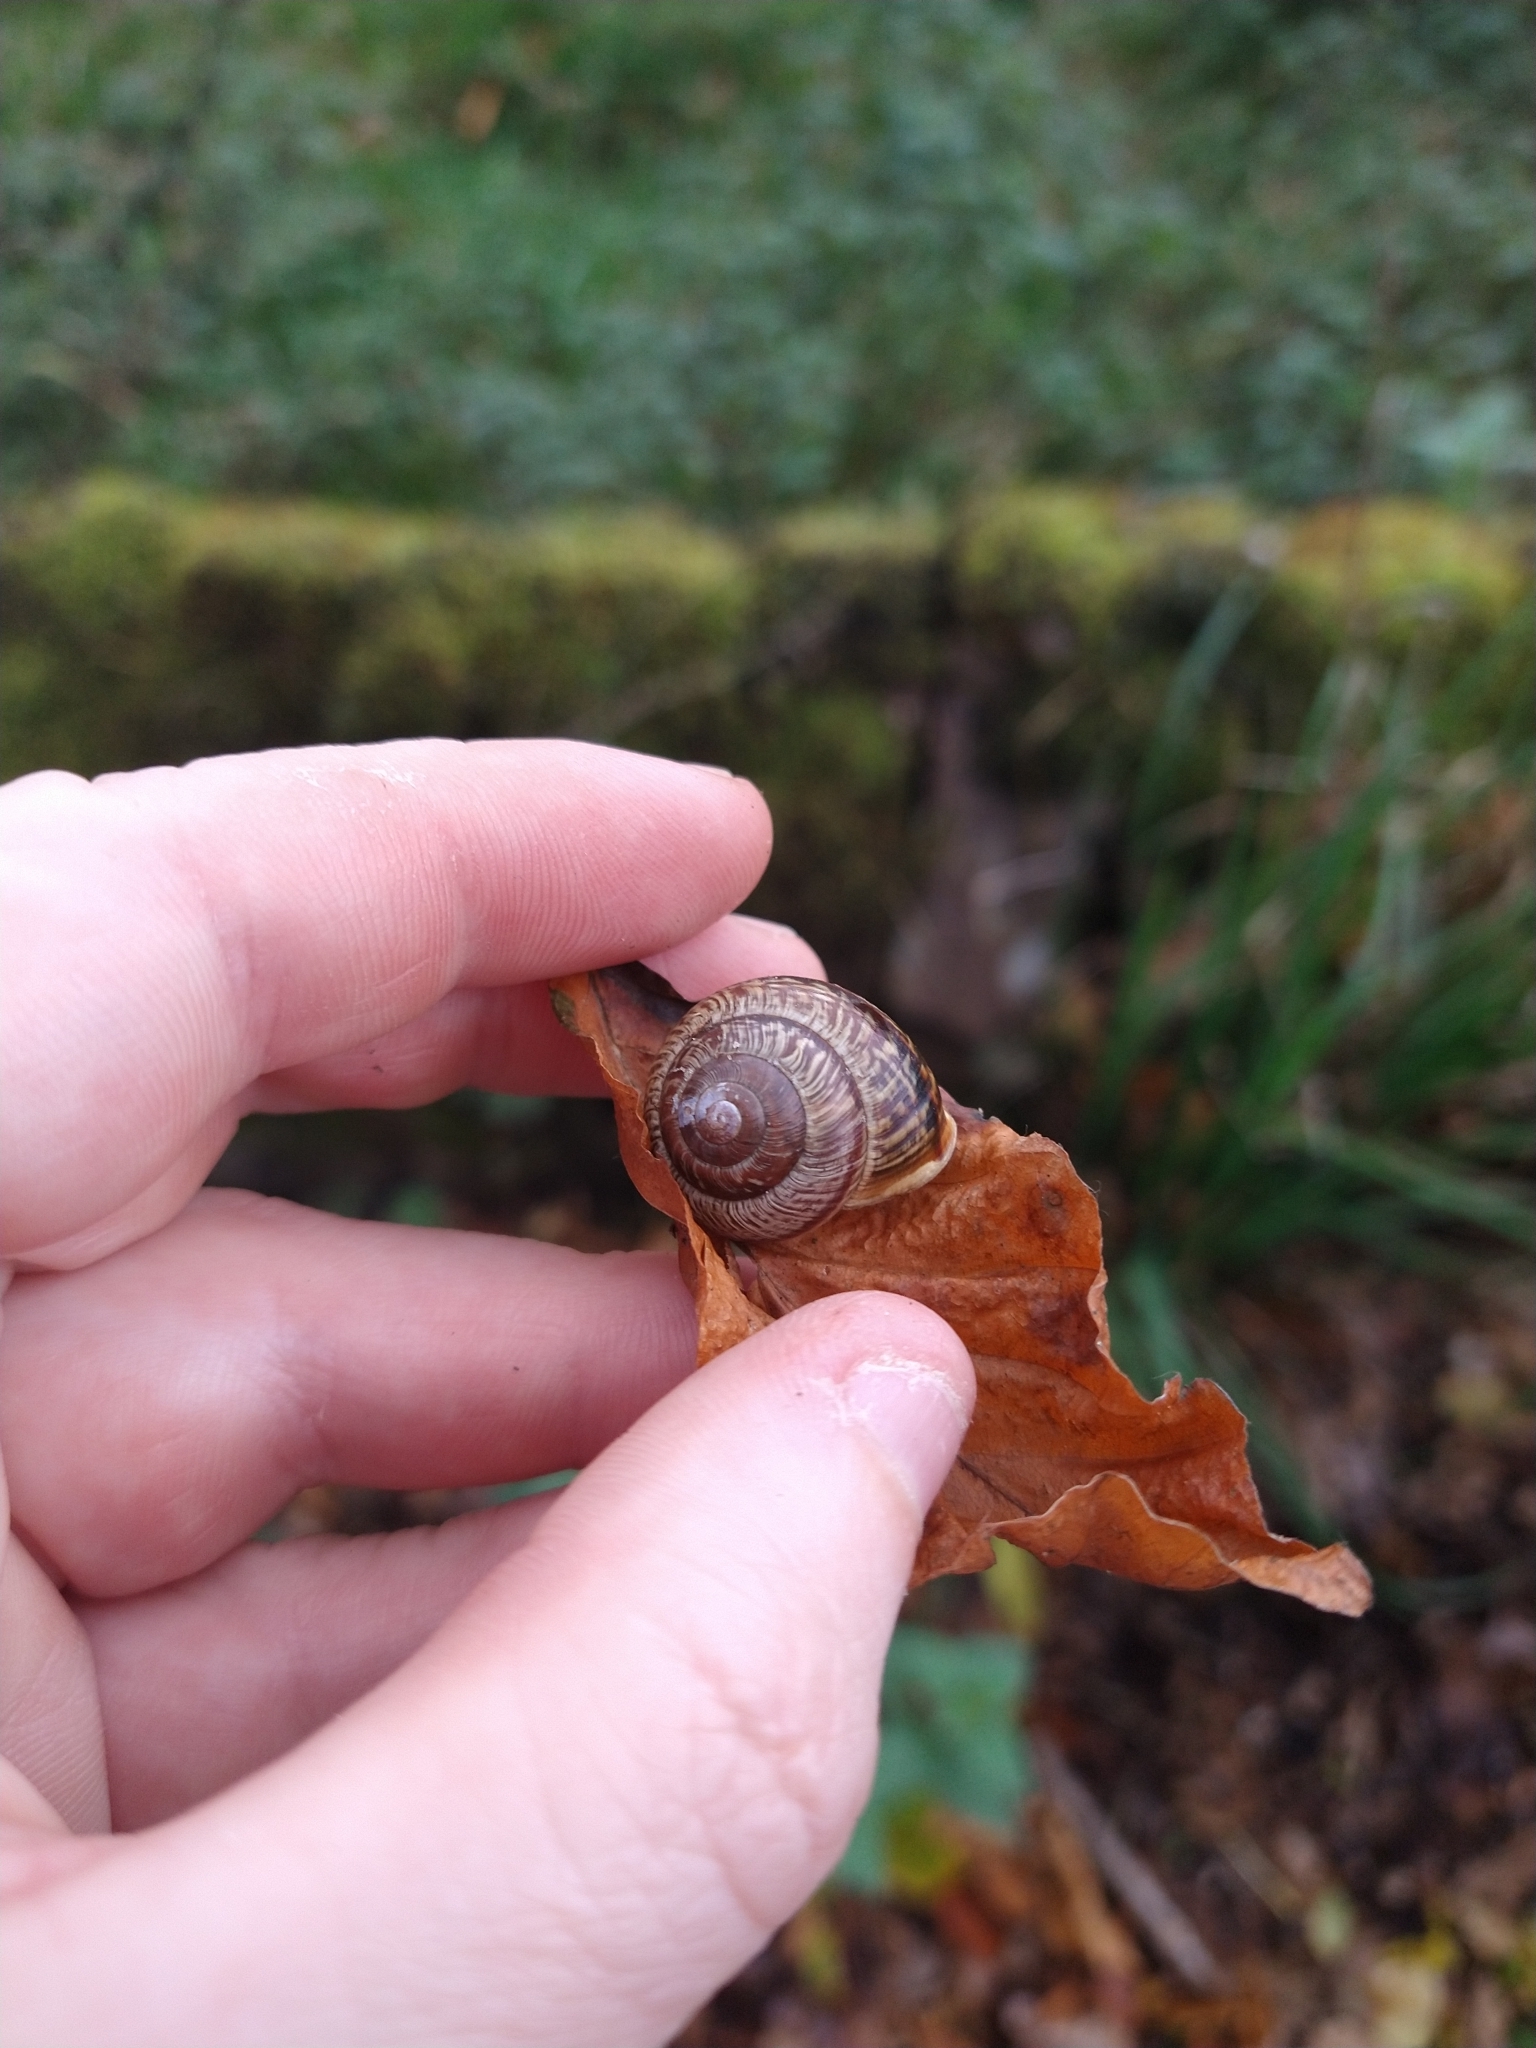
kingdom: Animalia
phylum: Mollusca
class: Gastropoda
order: Stylommatophora
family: Helicidae
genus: Arianta
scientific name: Arianta arbustorum
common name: Copse snail
